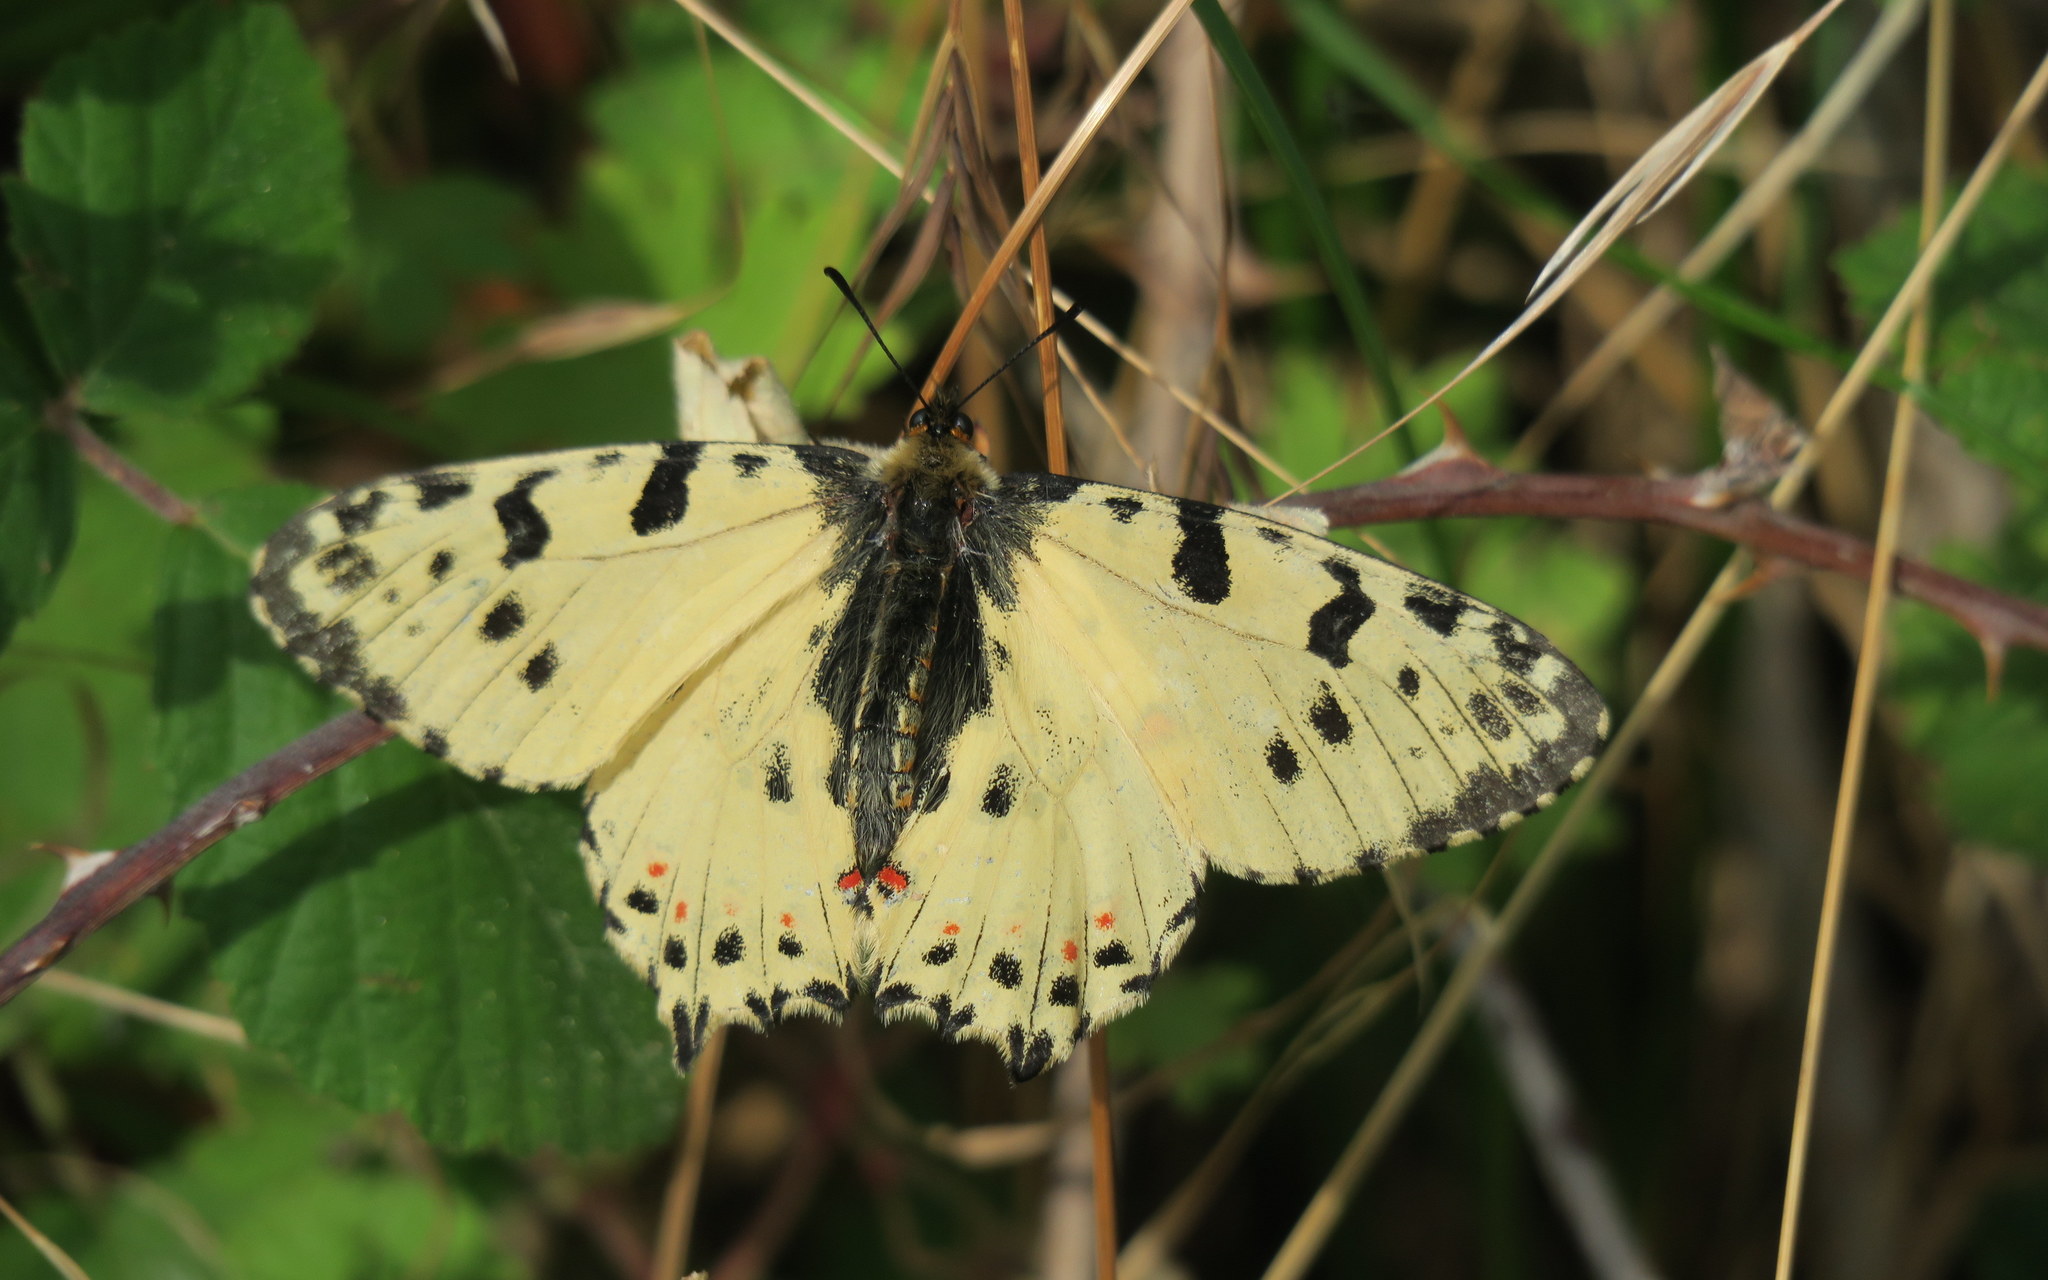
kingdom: Animalia
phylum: Arthropoda
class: Insecta
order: Lepidoptera
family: Papilionidae
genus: Zerynthia
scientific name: Zerynthia cerisy
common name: Eastern festoon
